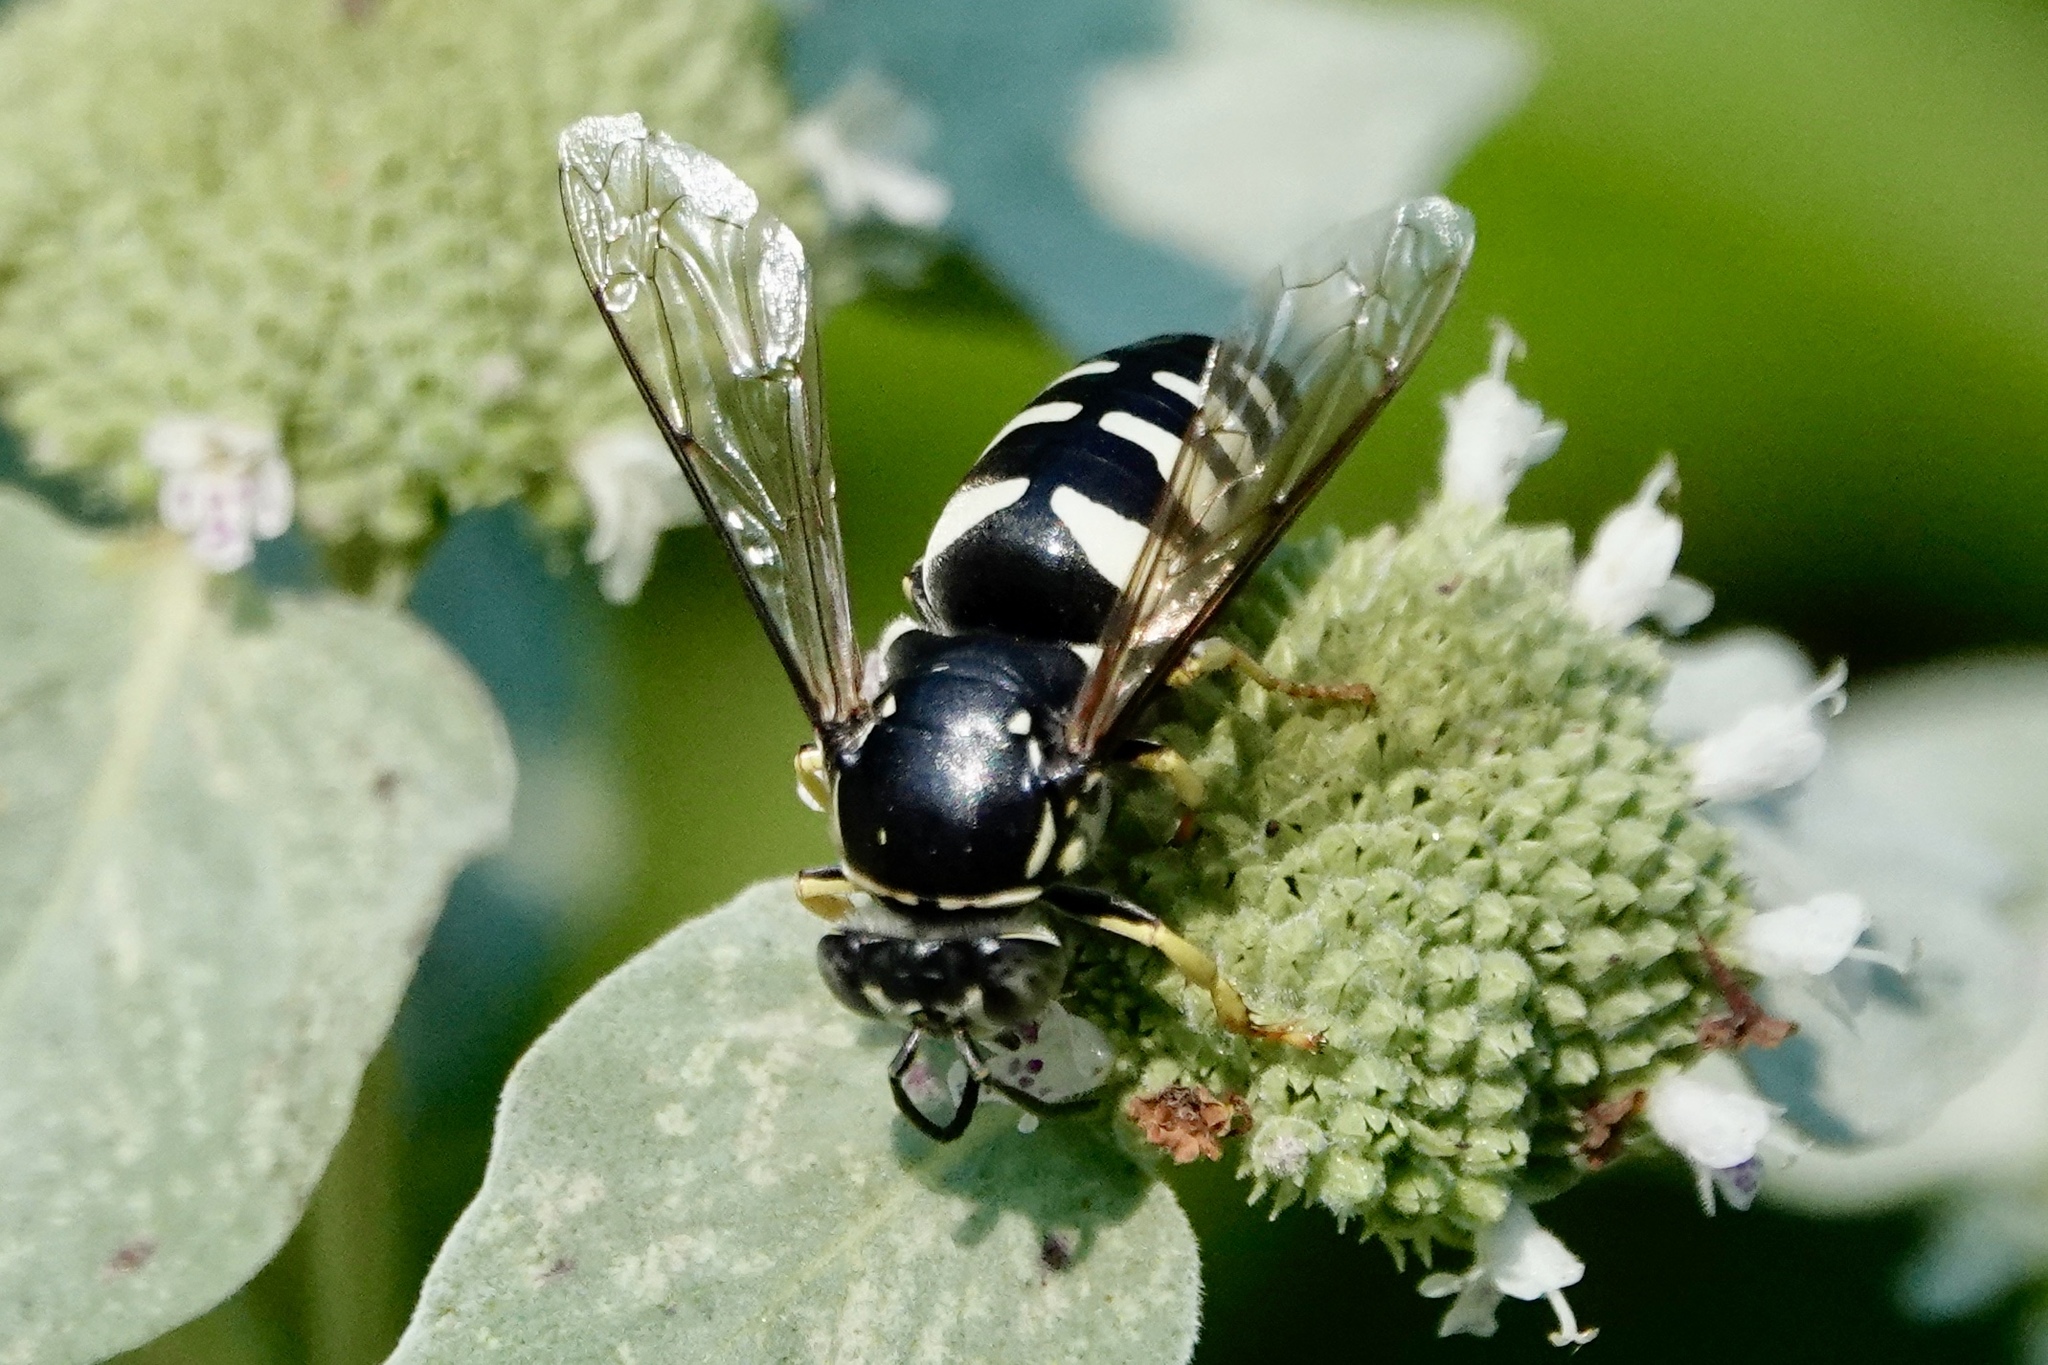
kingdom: Animalia
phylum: Arthropoda
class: Insecta
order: Hymenoptera
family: Crabronidae
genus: Bicyrtes
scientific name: Bicyrtes quadrifasciatus
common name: Four-banded stink bug hunter wasp
